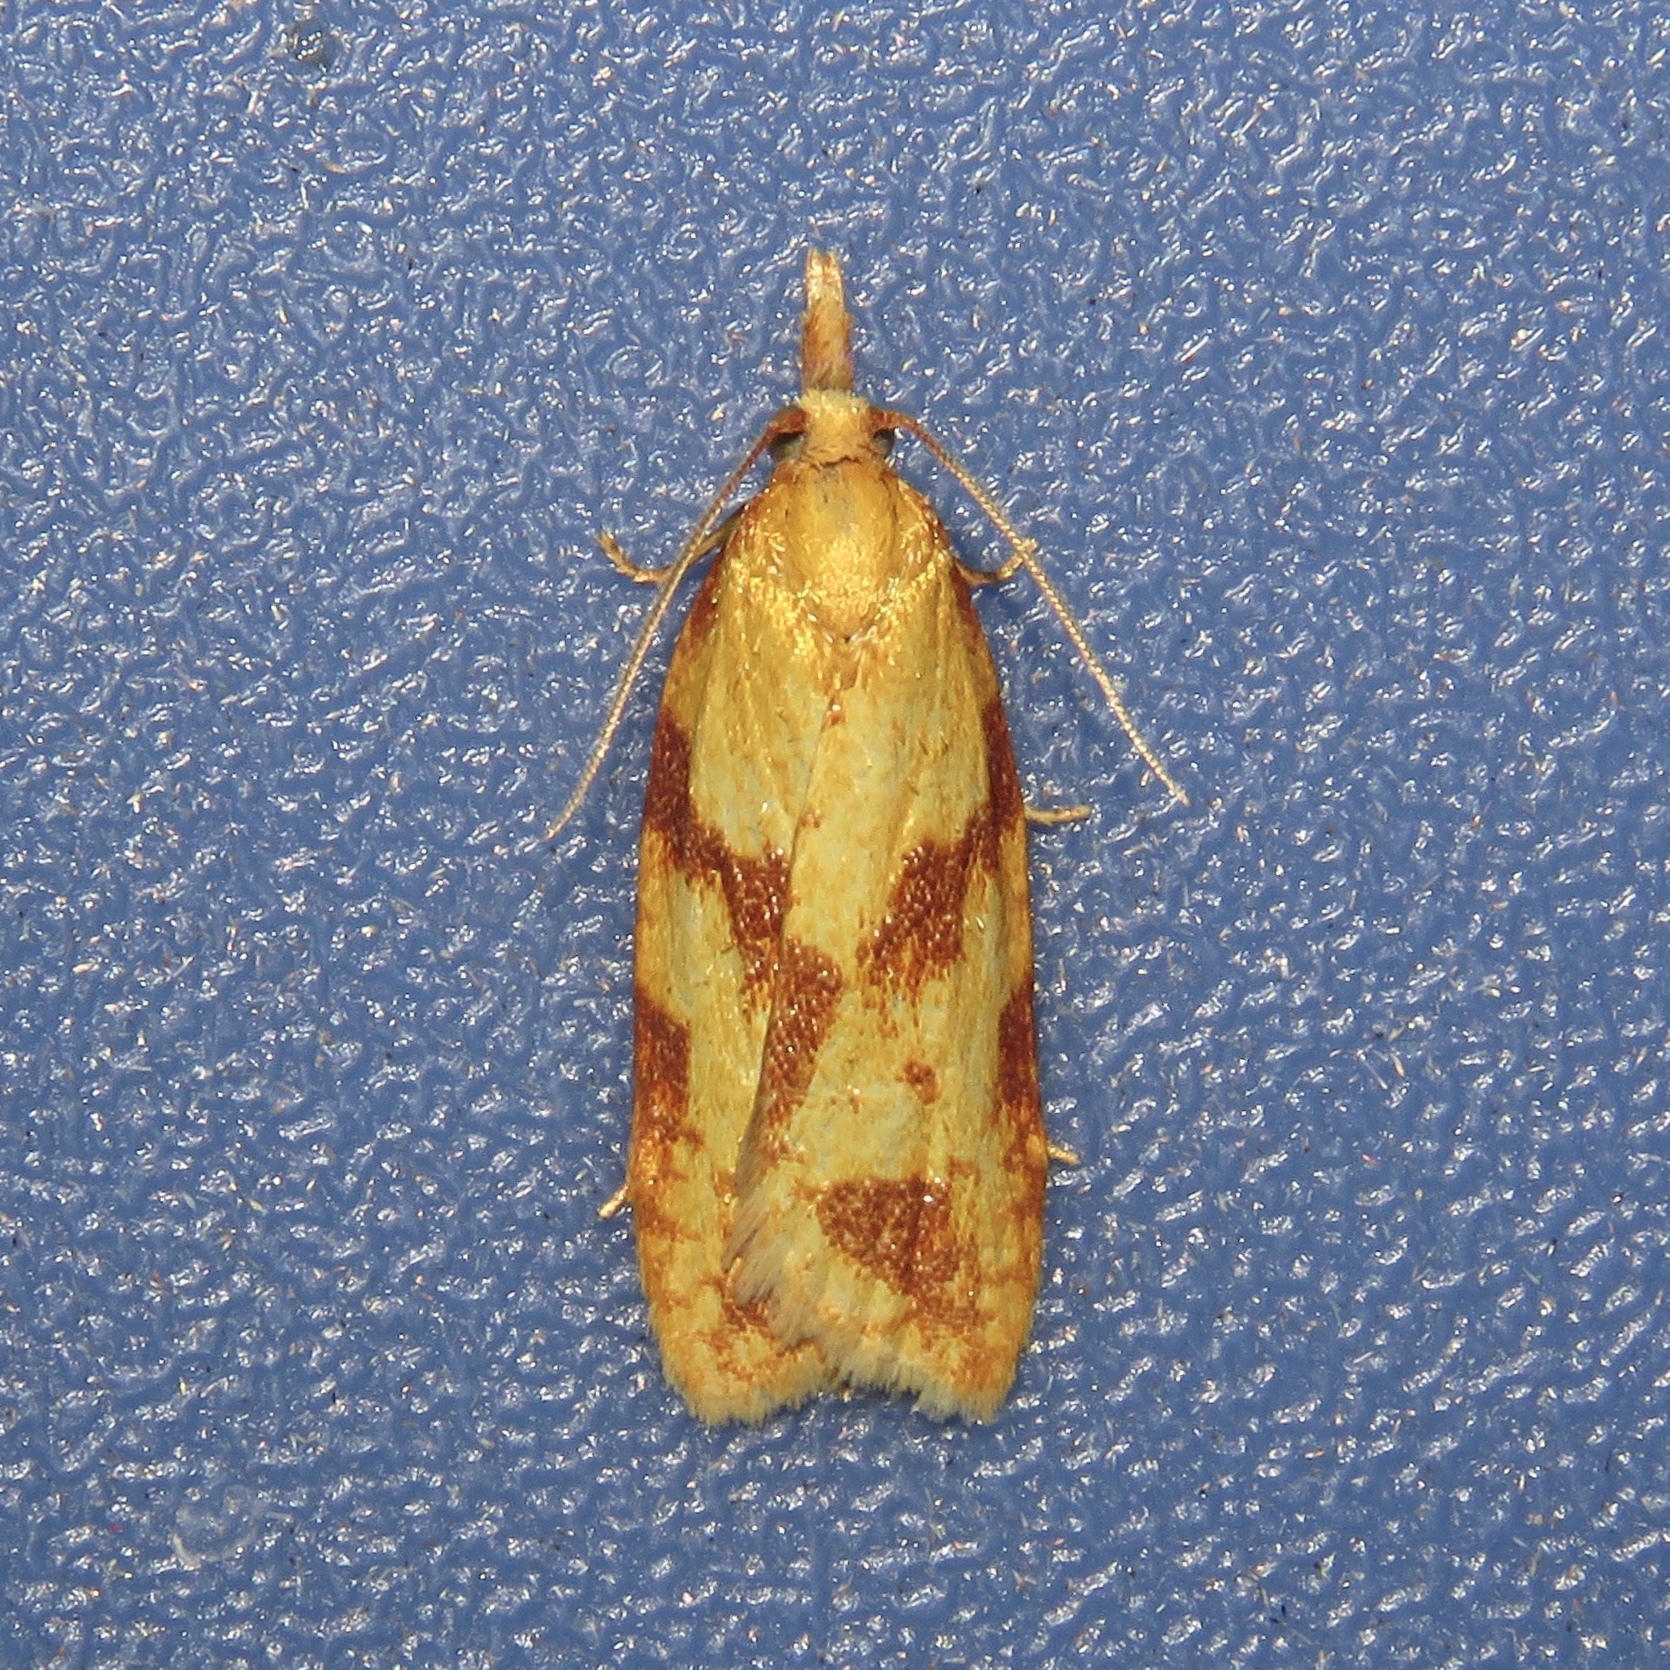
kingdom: Animalia
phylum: Arthropoda
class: Insecta
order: Lepidoptera
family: Tortricidae
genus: Sparganothis
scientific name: Sparganothis unifasciana
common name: One-lined sparganothis moth
